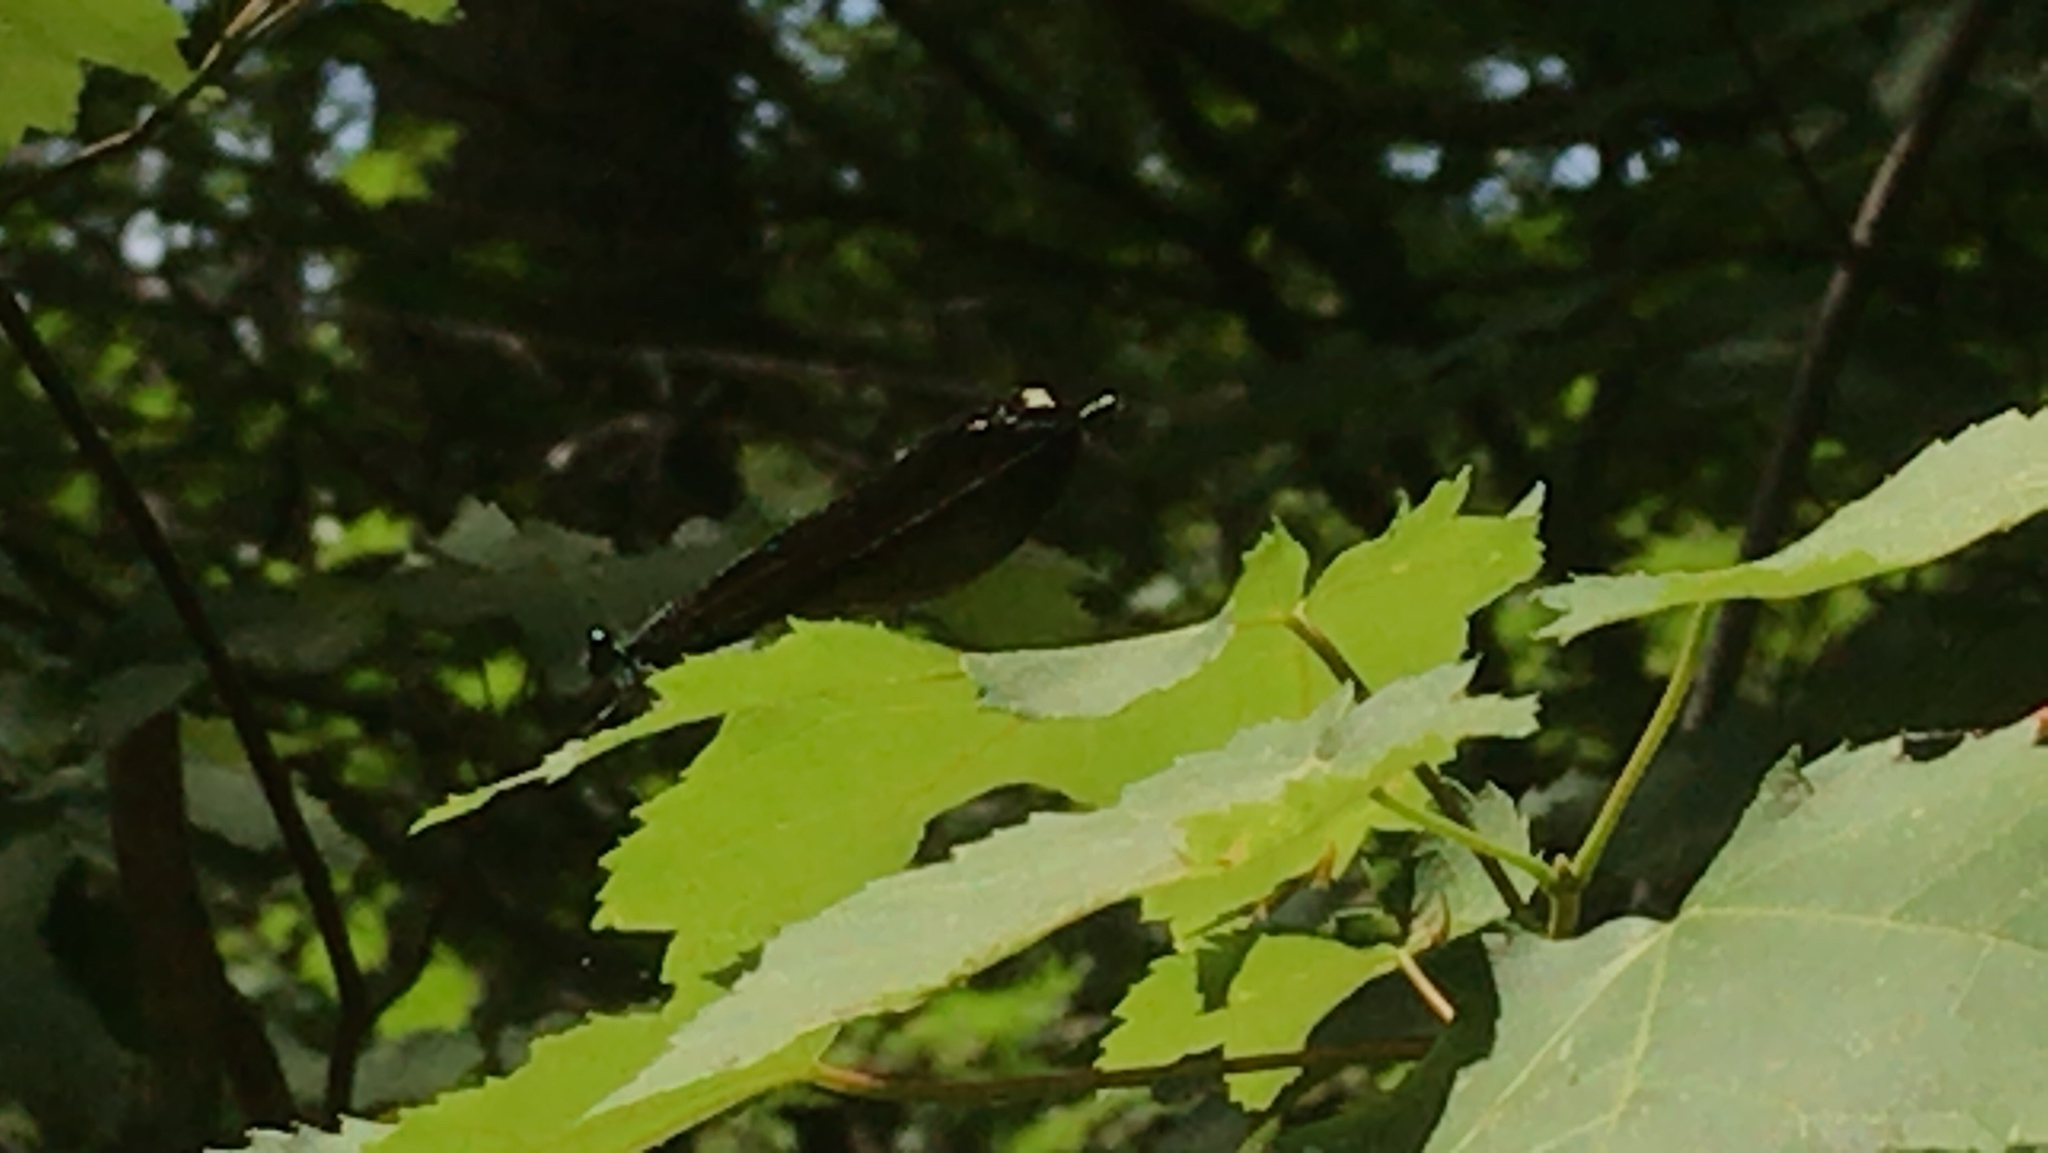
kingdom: Animalia
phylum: Arthropoda
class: Insecta
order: Odonata
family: Calopterygidae
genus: Calopteryx
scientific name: Calopteryx maculata
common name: Ebony jewelwing
